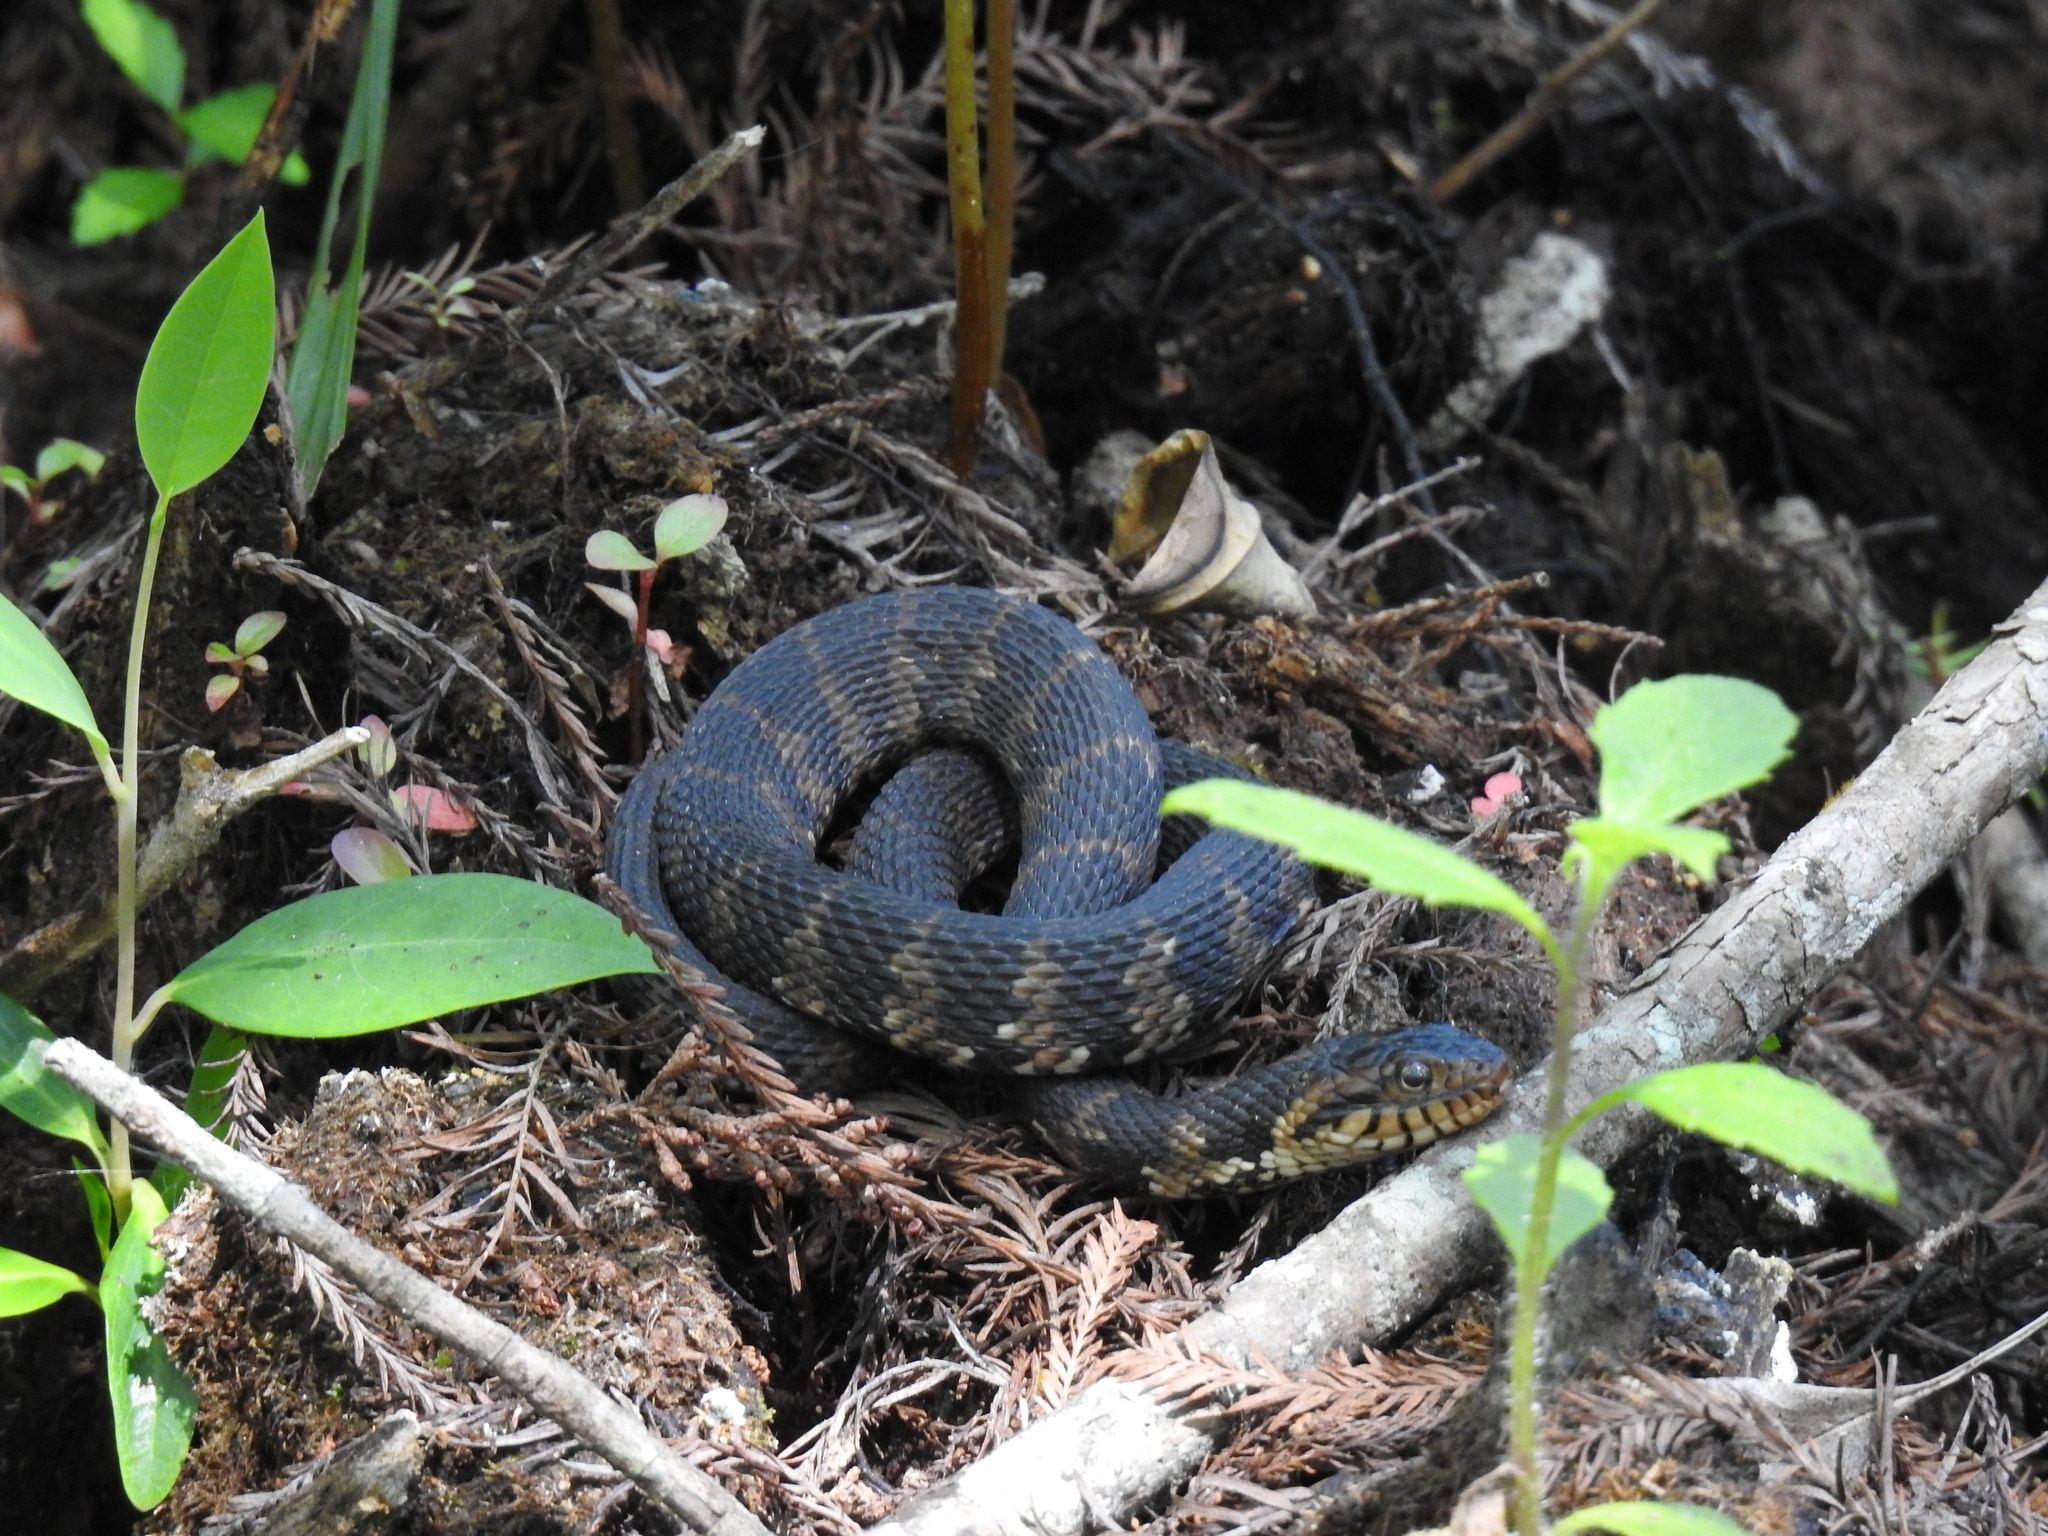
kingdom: Animalia
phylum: Chordata
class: Squamata
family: Colubridae
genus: Nerodia
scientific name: Nerodia fasciata
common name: Southern water snake
